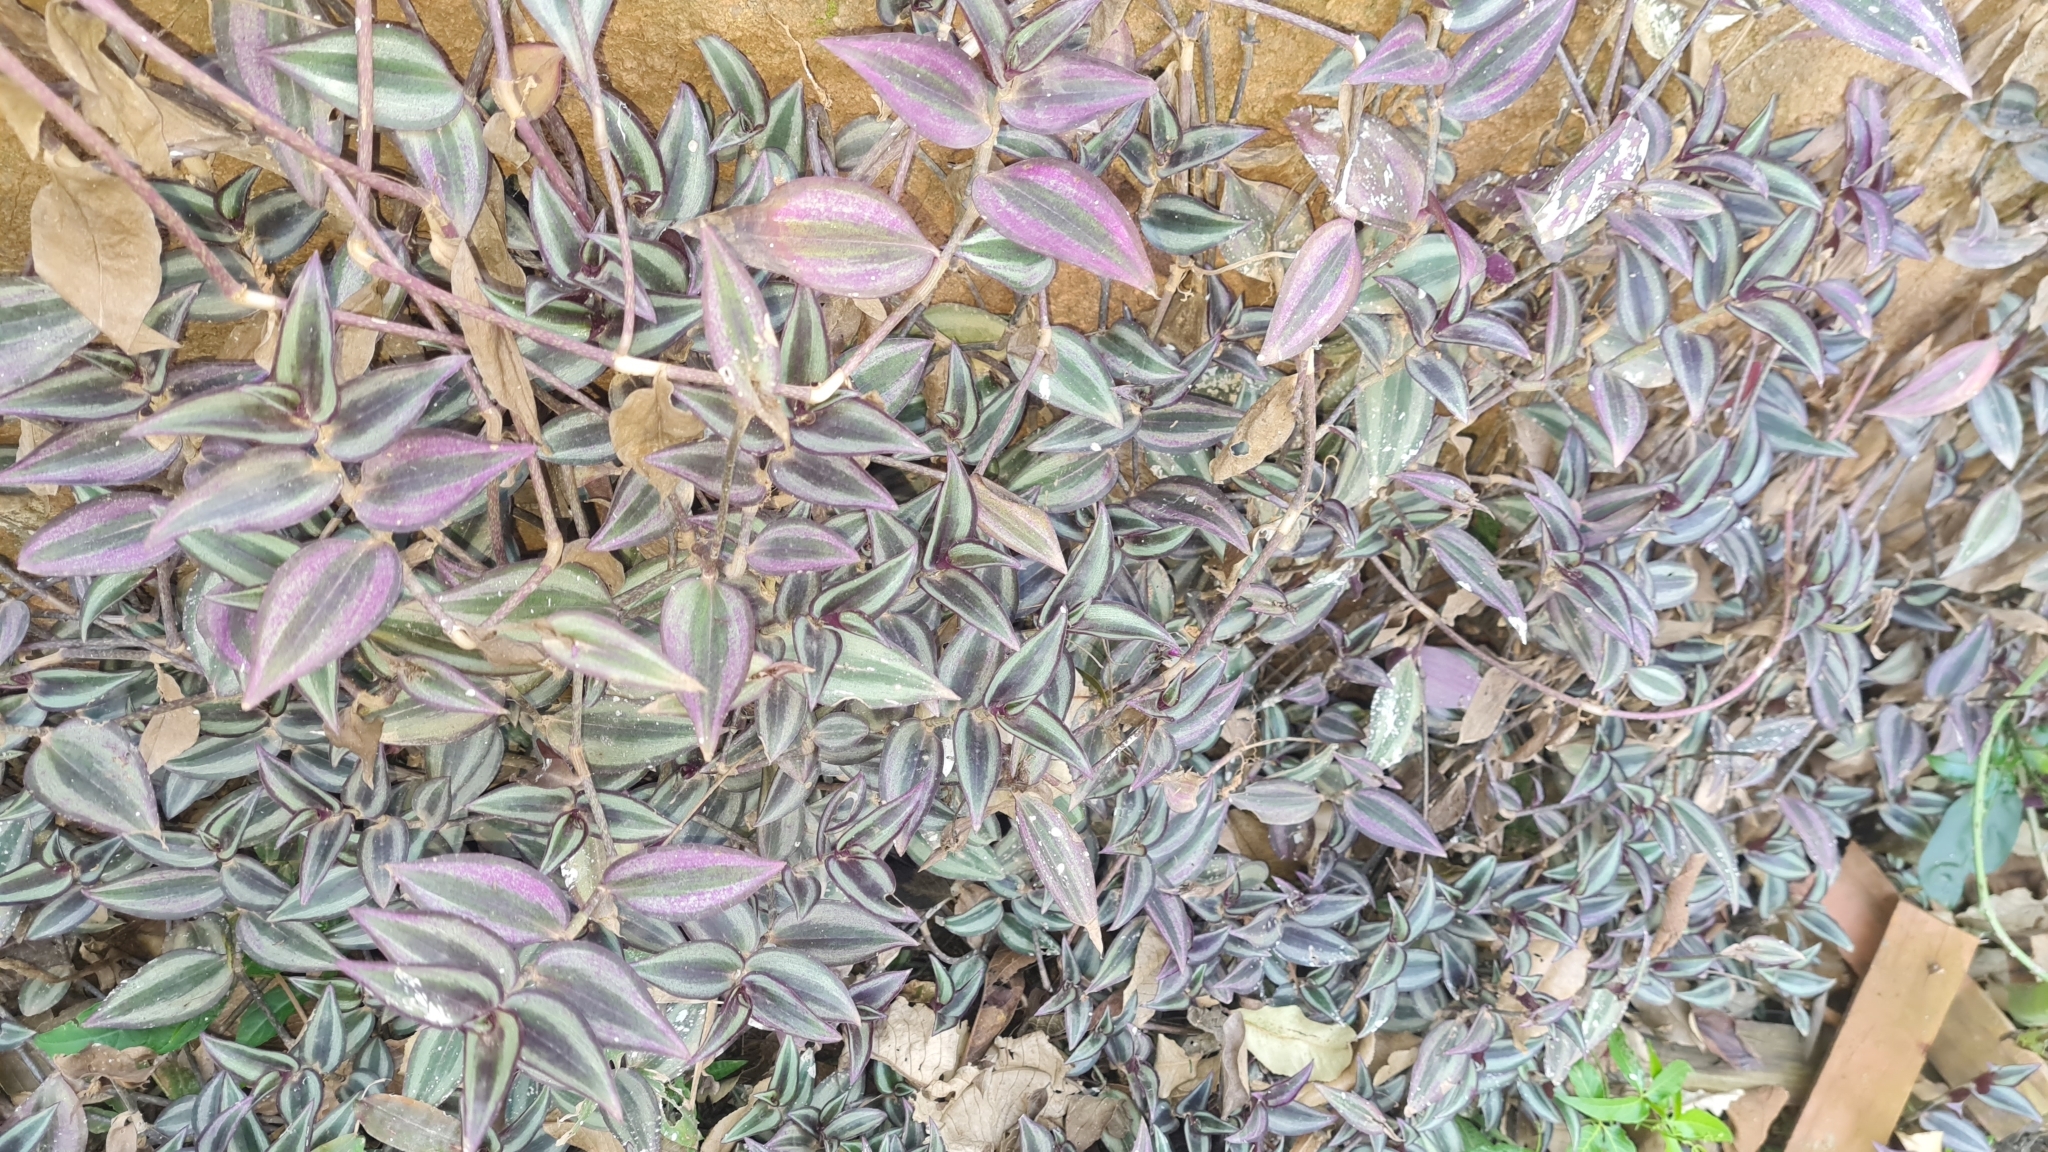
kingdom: Plantae
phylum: Tracheophyta
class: Liliopsida
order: Commelinales
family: Commelinaceae
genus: Tradescantia
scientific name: Tradescantia zebrina
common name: Inchplant
